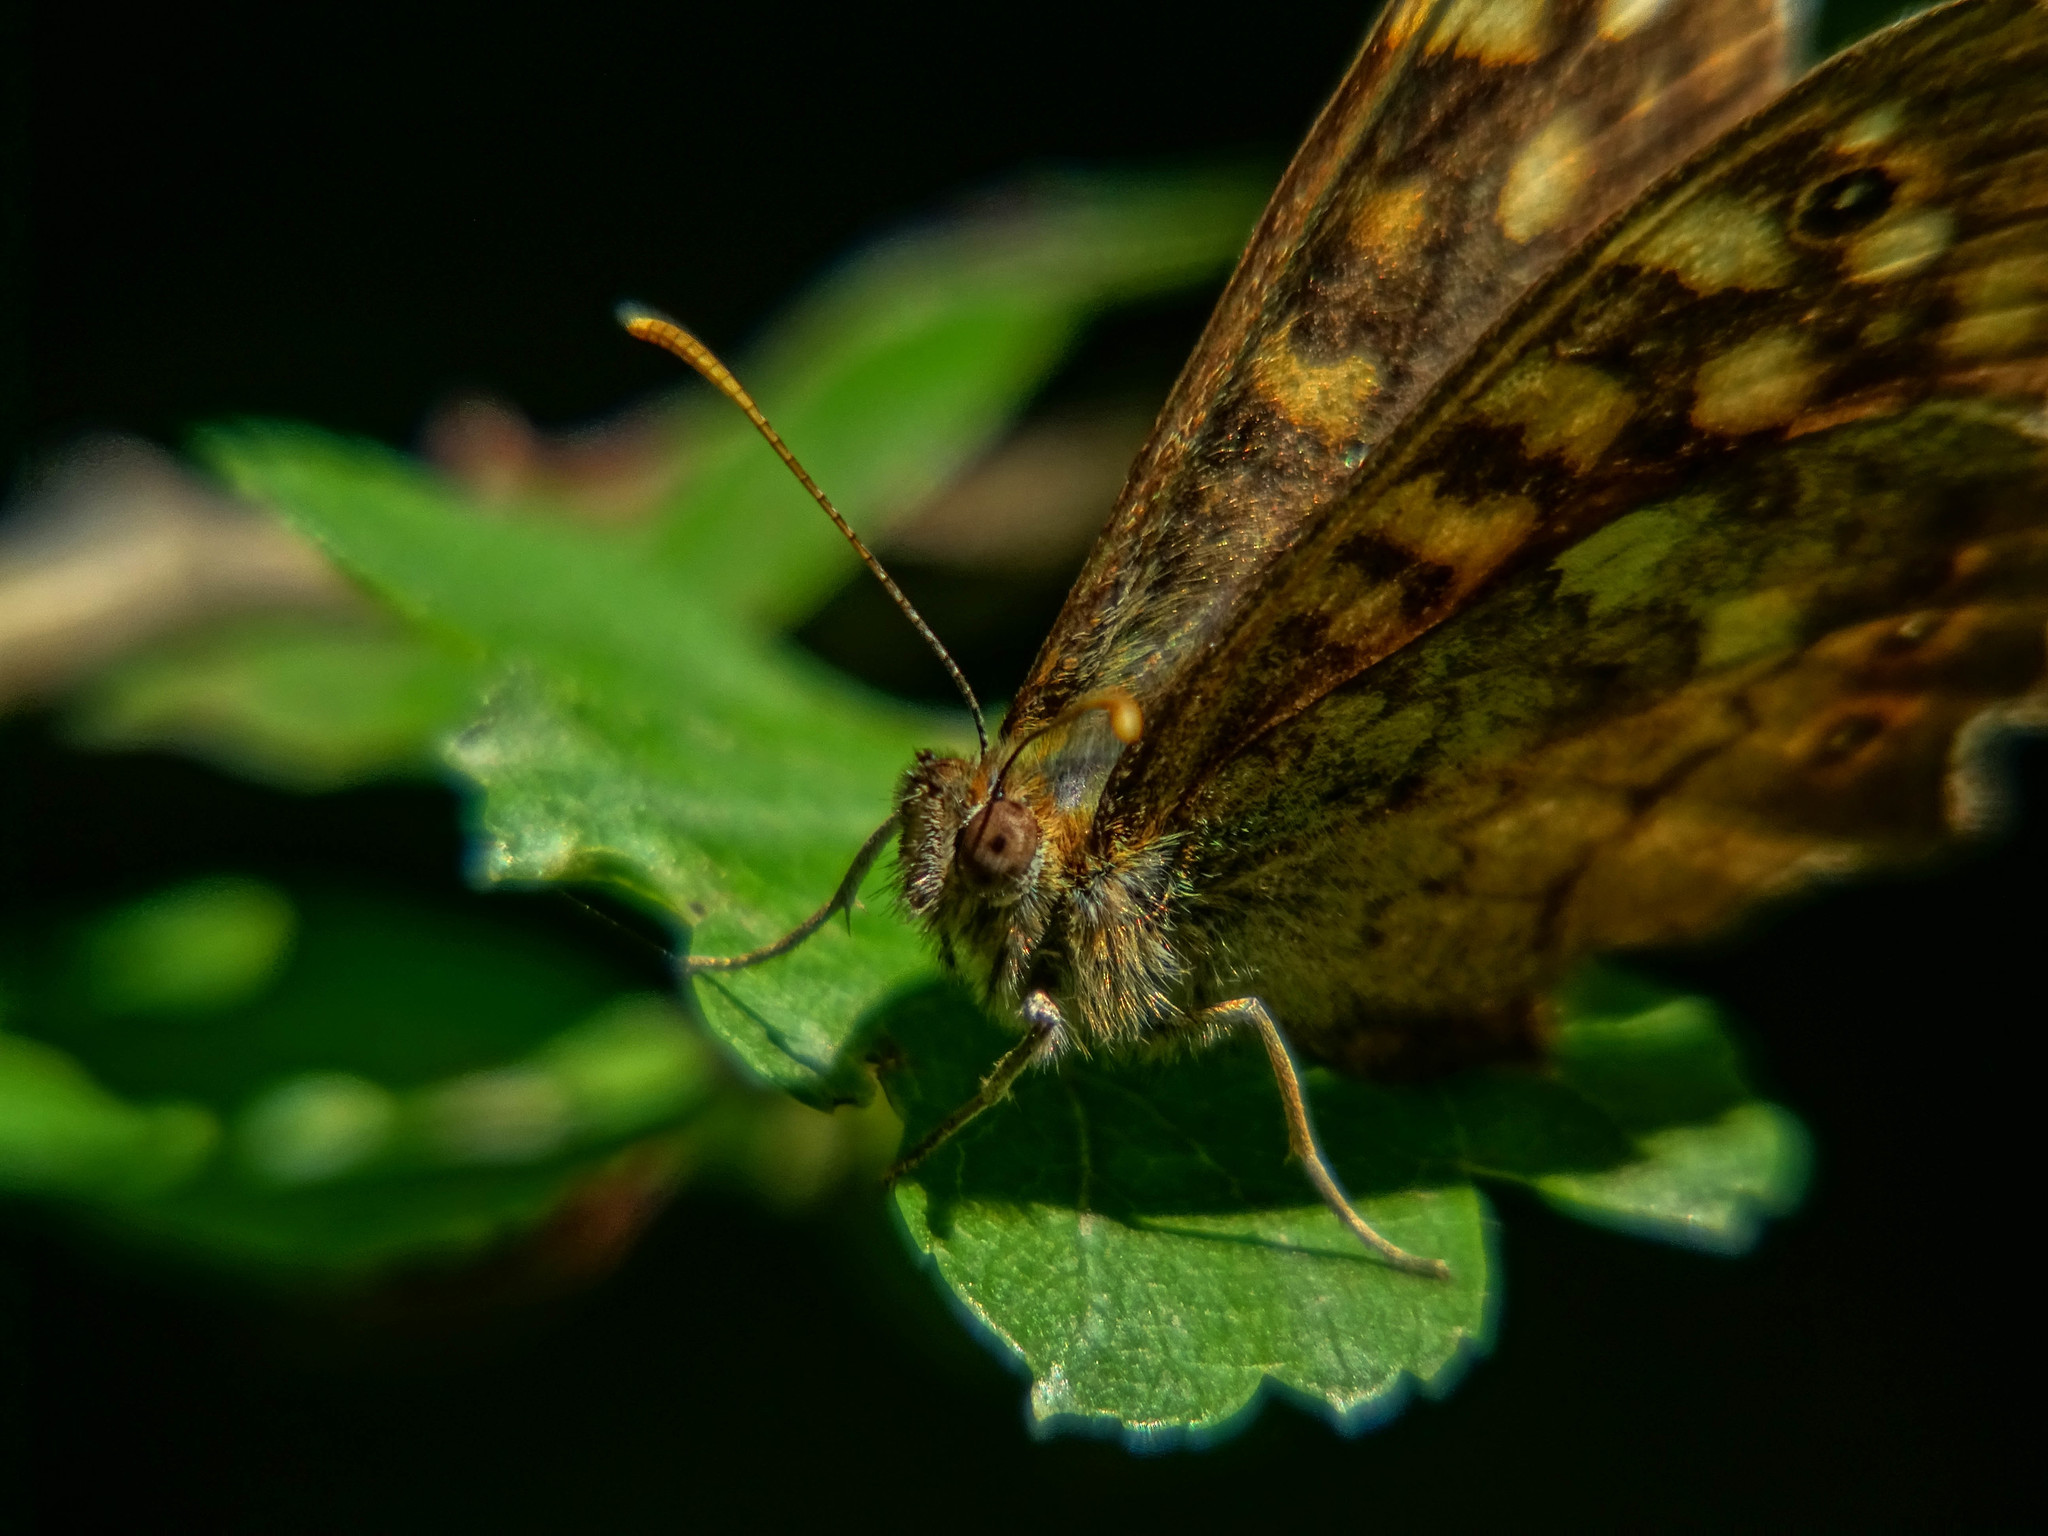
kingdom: Animalia
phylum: Arthropoda
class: Insecta
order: Lepidoptera
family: Nymphalidae
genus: Pararge
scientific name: Pararge aegeria
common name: Speckled wood
